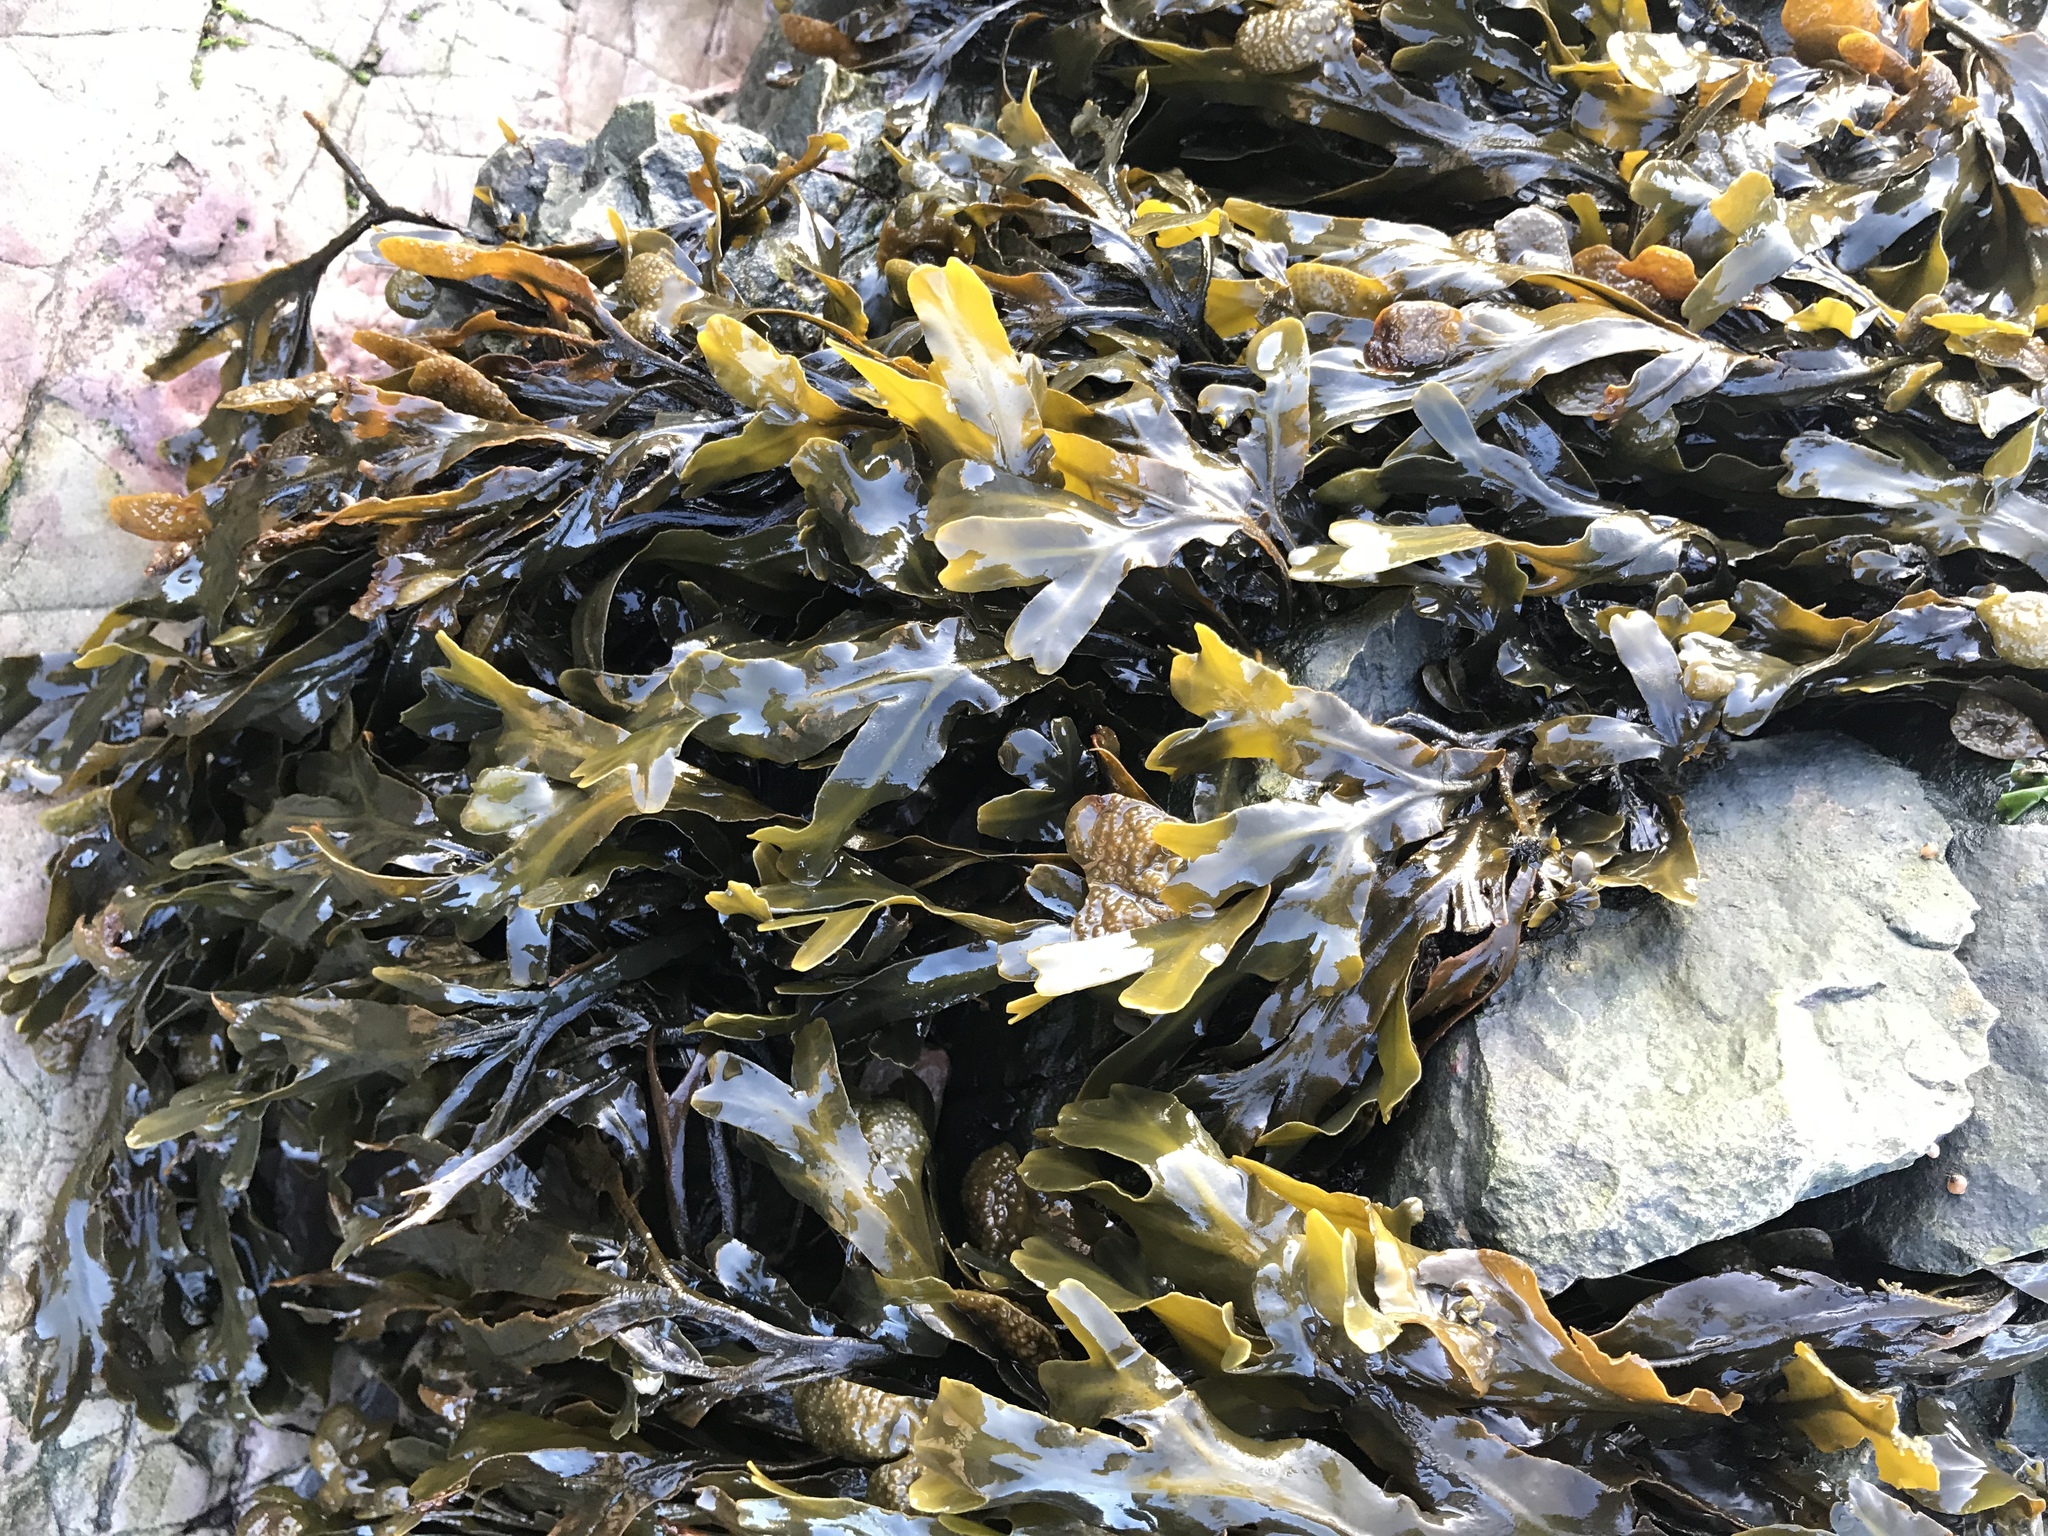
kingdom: Chromista
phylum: Ochrophyta
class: Phaeophyceae
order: Fucales
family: Fucaceae
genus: Fucus
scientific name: Fucus vesiculosus
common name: Bladder wrack
